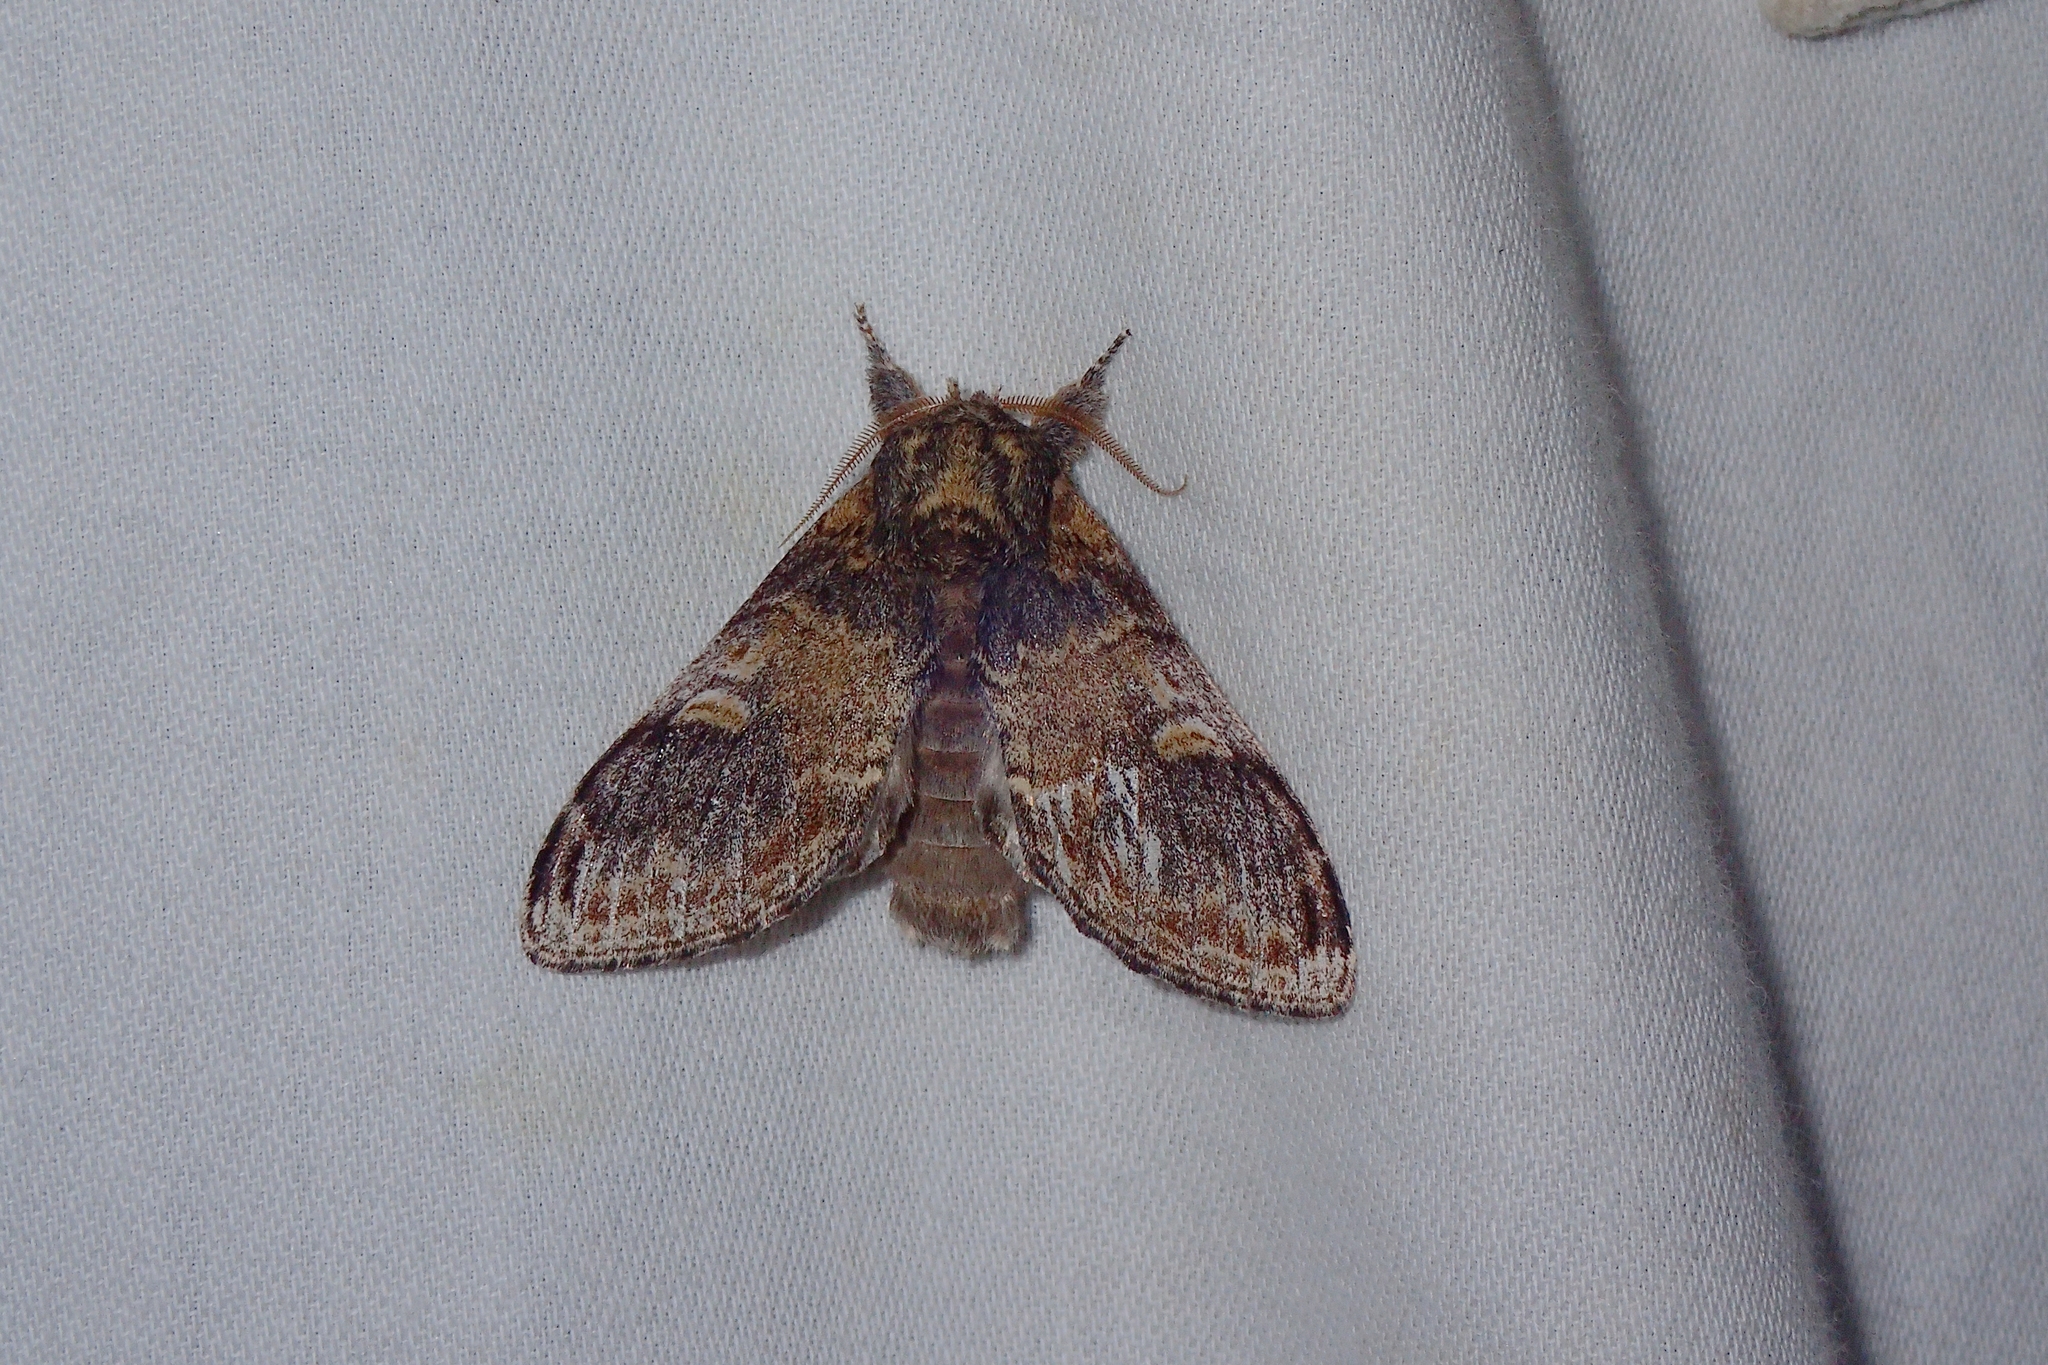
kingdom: Animalia
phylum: Arthropoda
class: Insecta
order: Lepidoptera
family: Notodontidae
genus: Notodonta
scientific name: Notodonta tritophus
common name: Three-humped prominent
